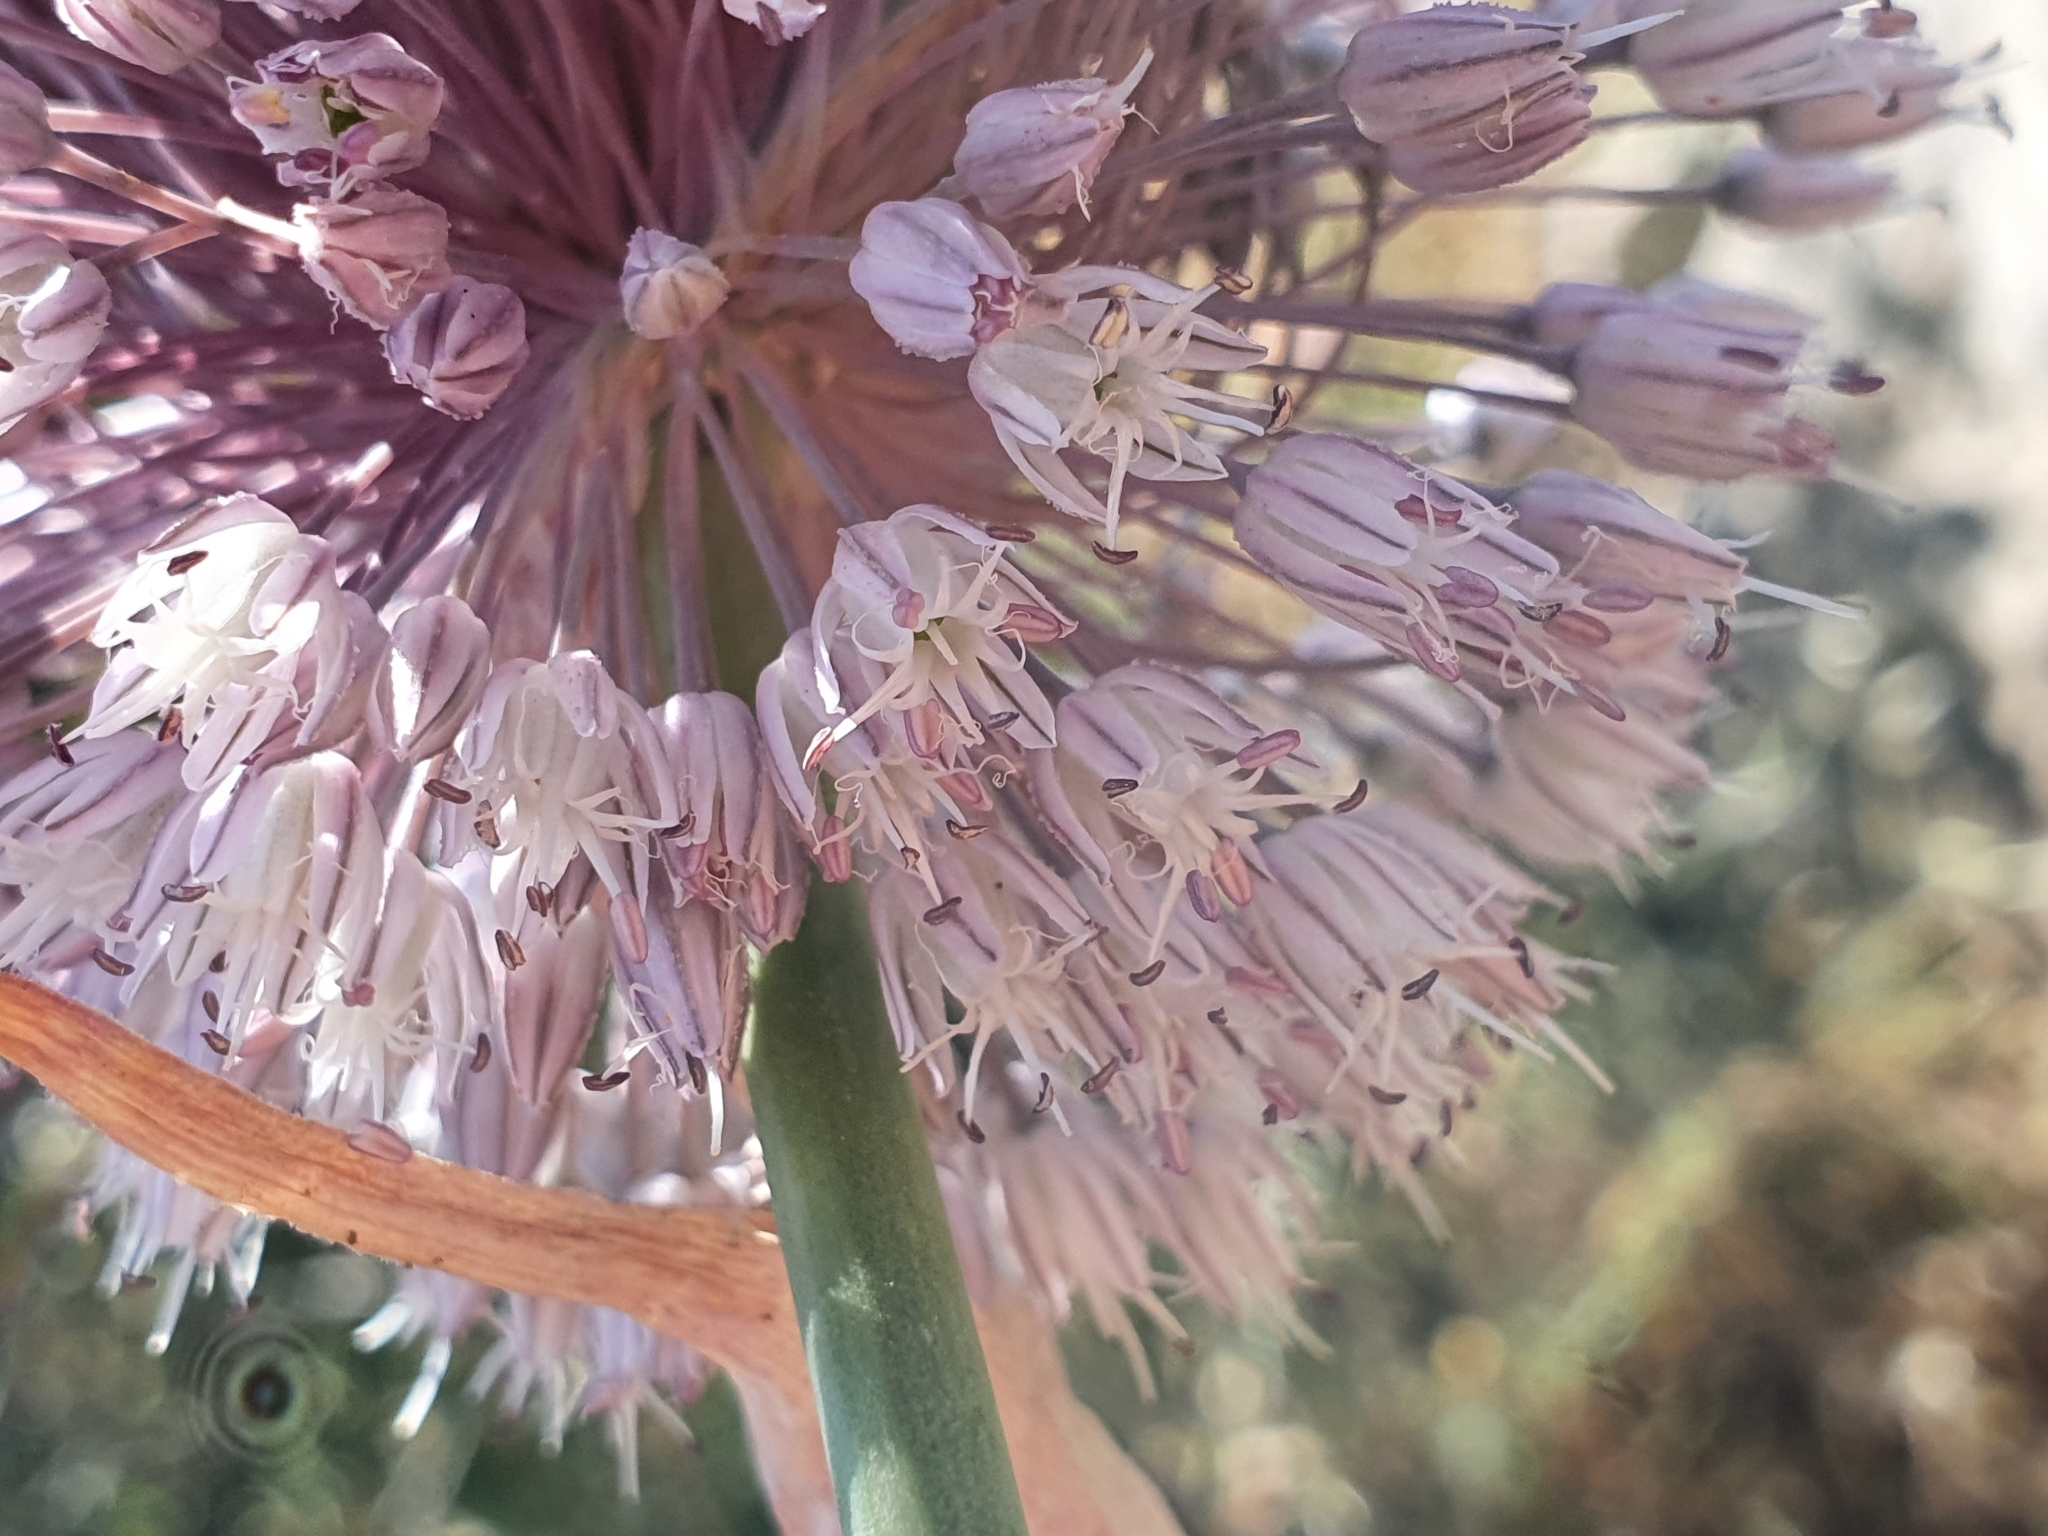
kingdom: Plantae
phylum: Tracheophyta
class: Liliopsida
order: Asparagales
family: Amaryllidaceae
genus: Allium
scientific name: Allium multiflorum
